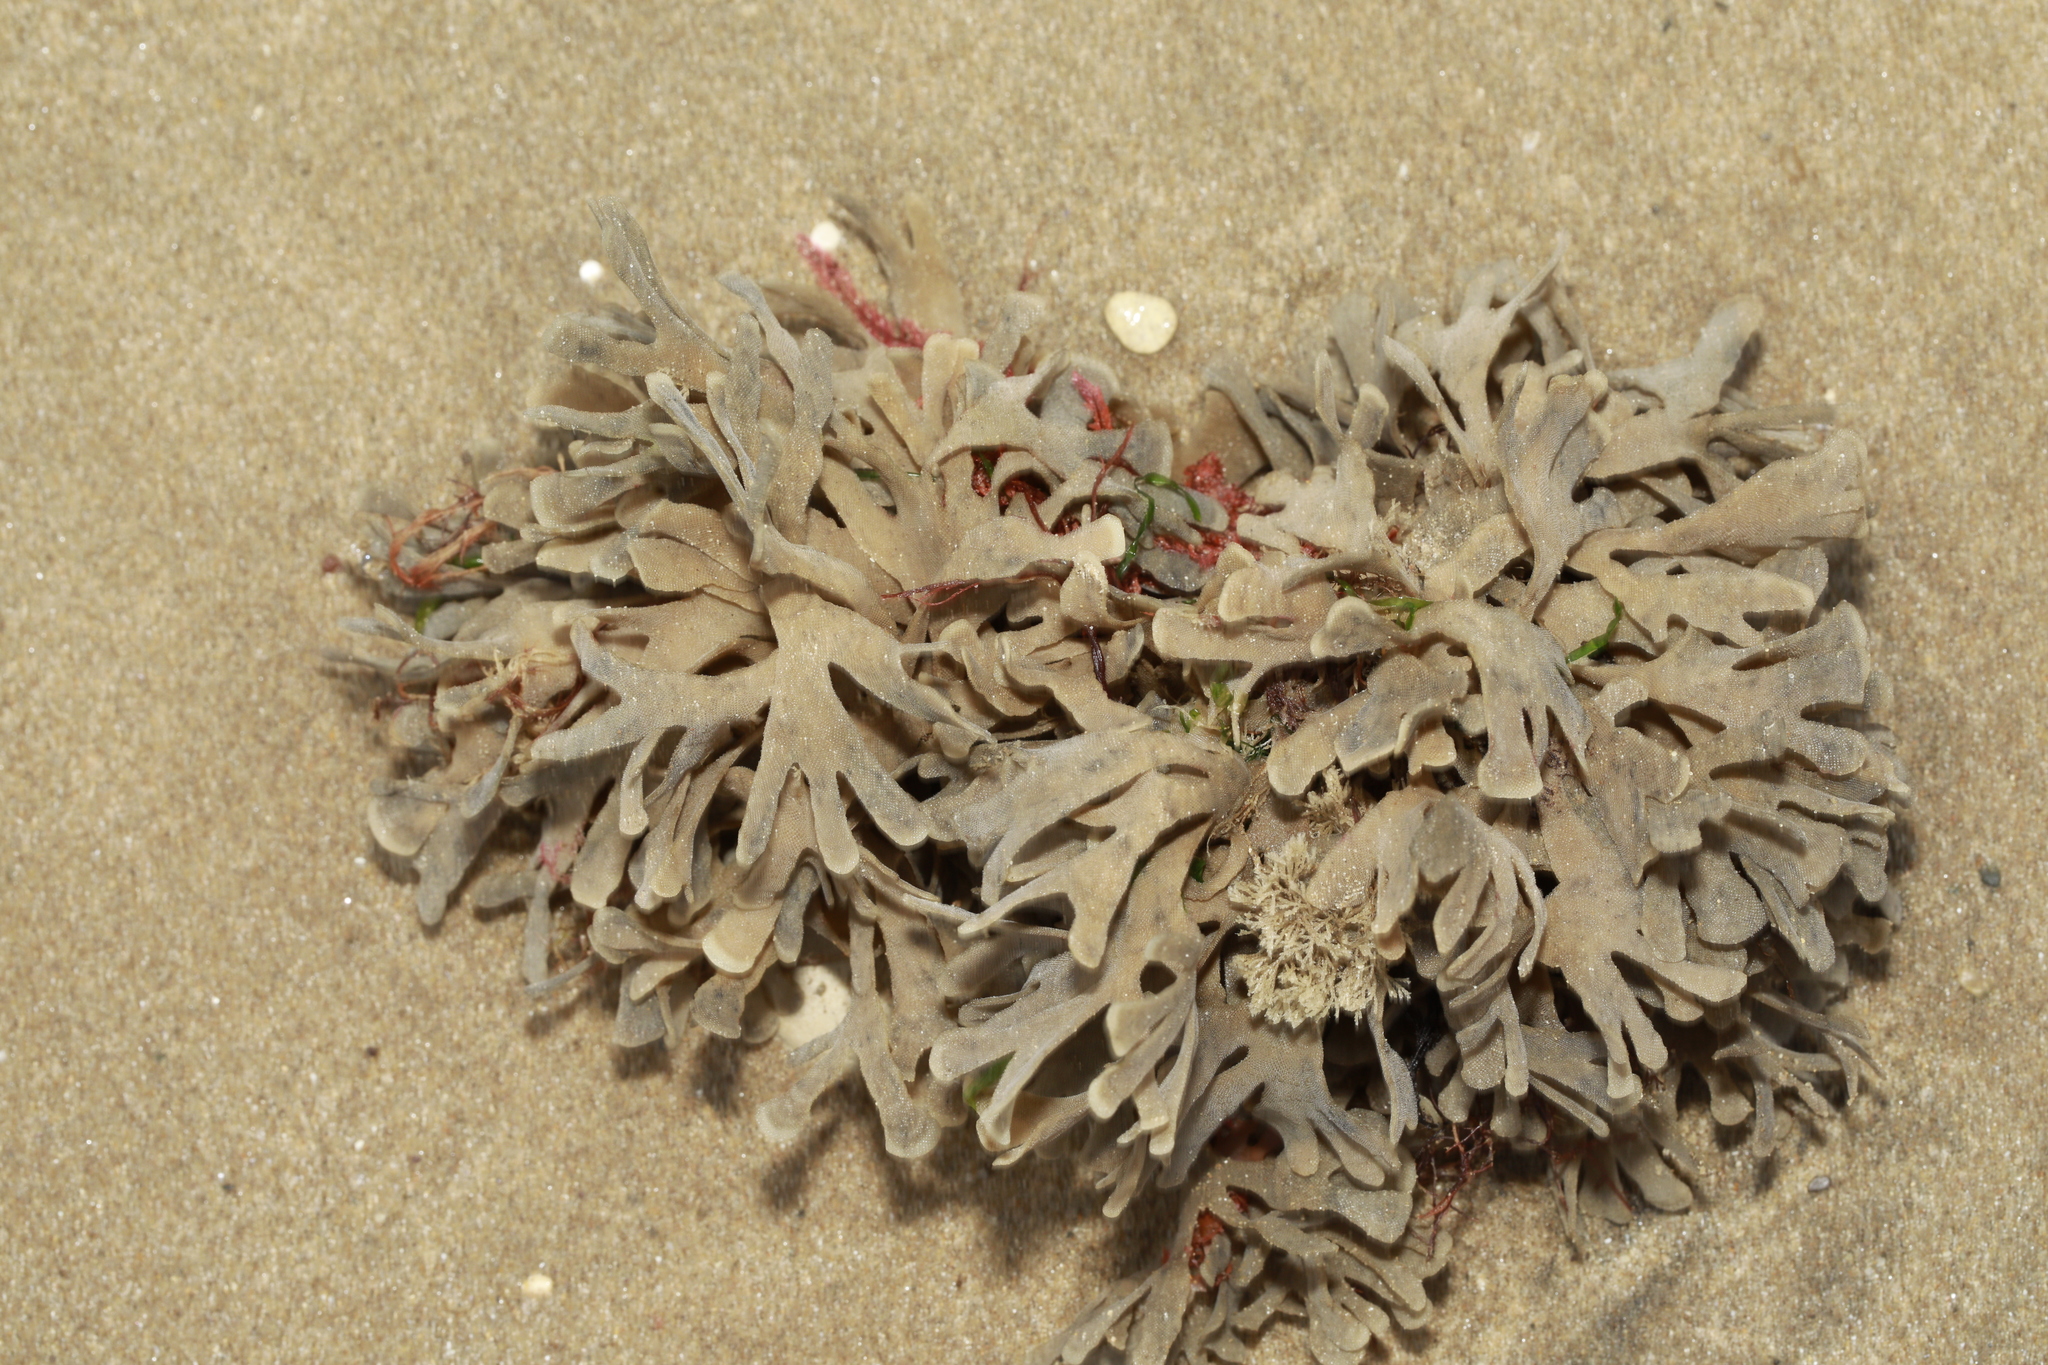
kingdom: Animalia
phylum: Bryozoa
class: Gymnolaemata
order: Cheilostomatida
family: Flustridae
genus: Flustra
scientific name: Flustra foliacea
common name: Hornwrack
